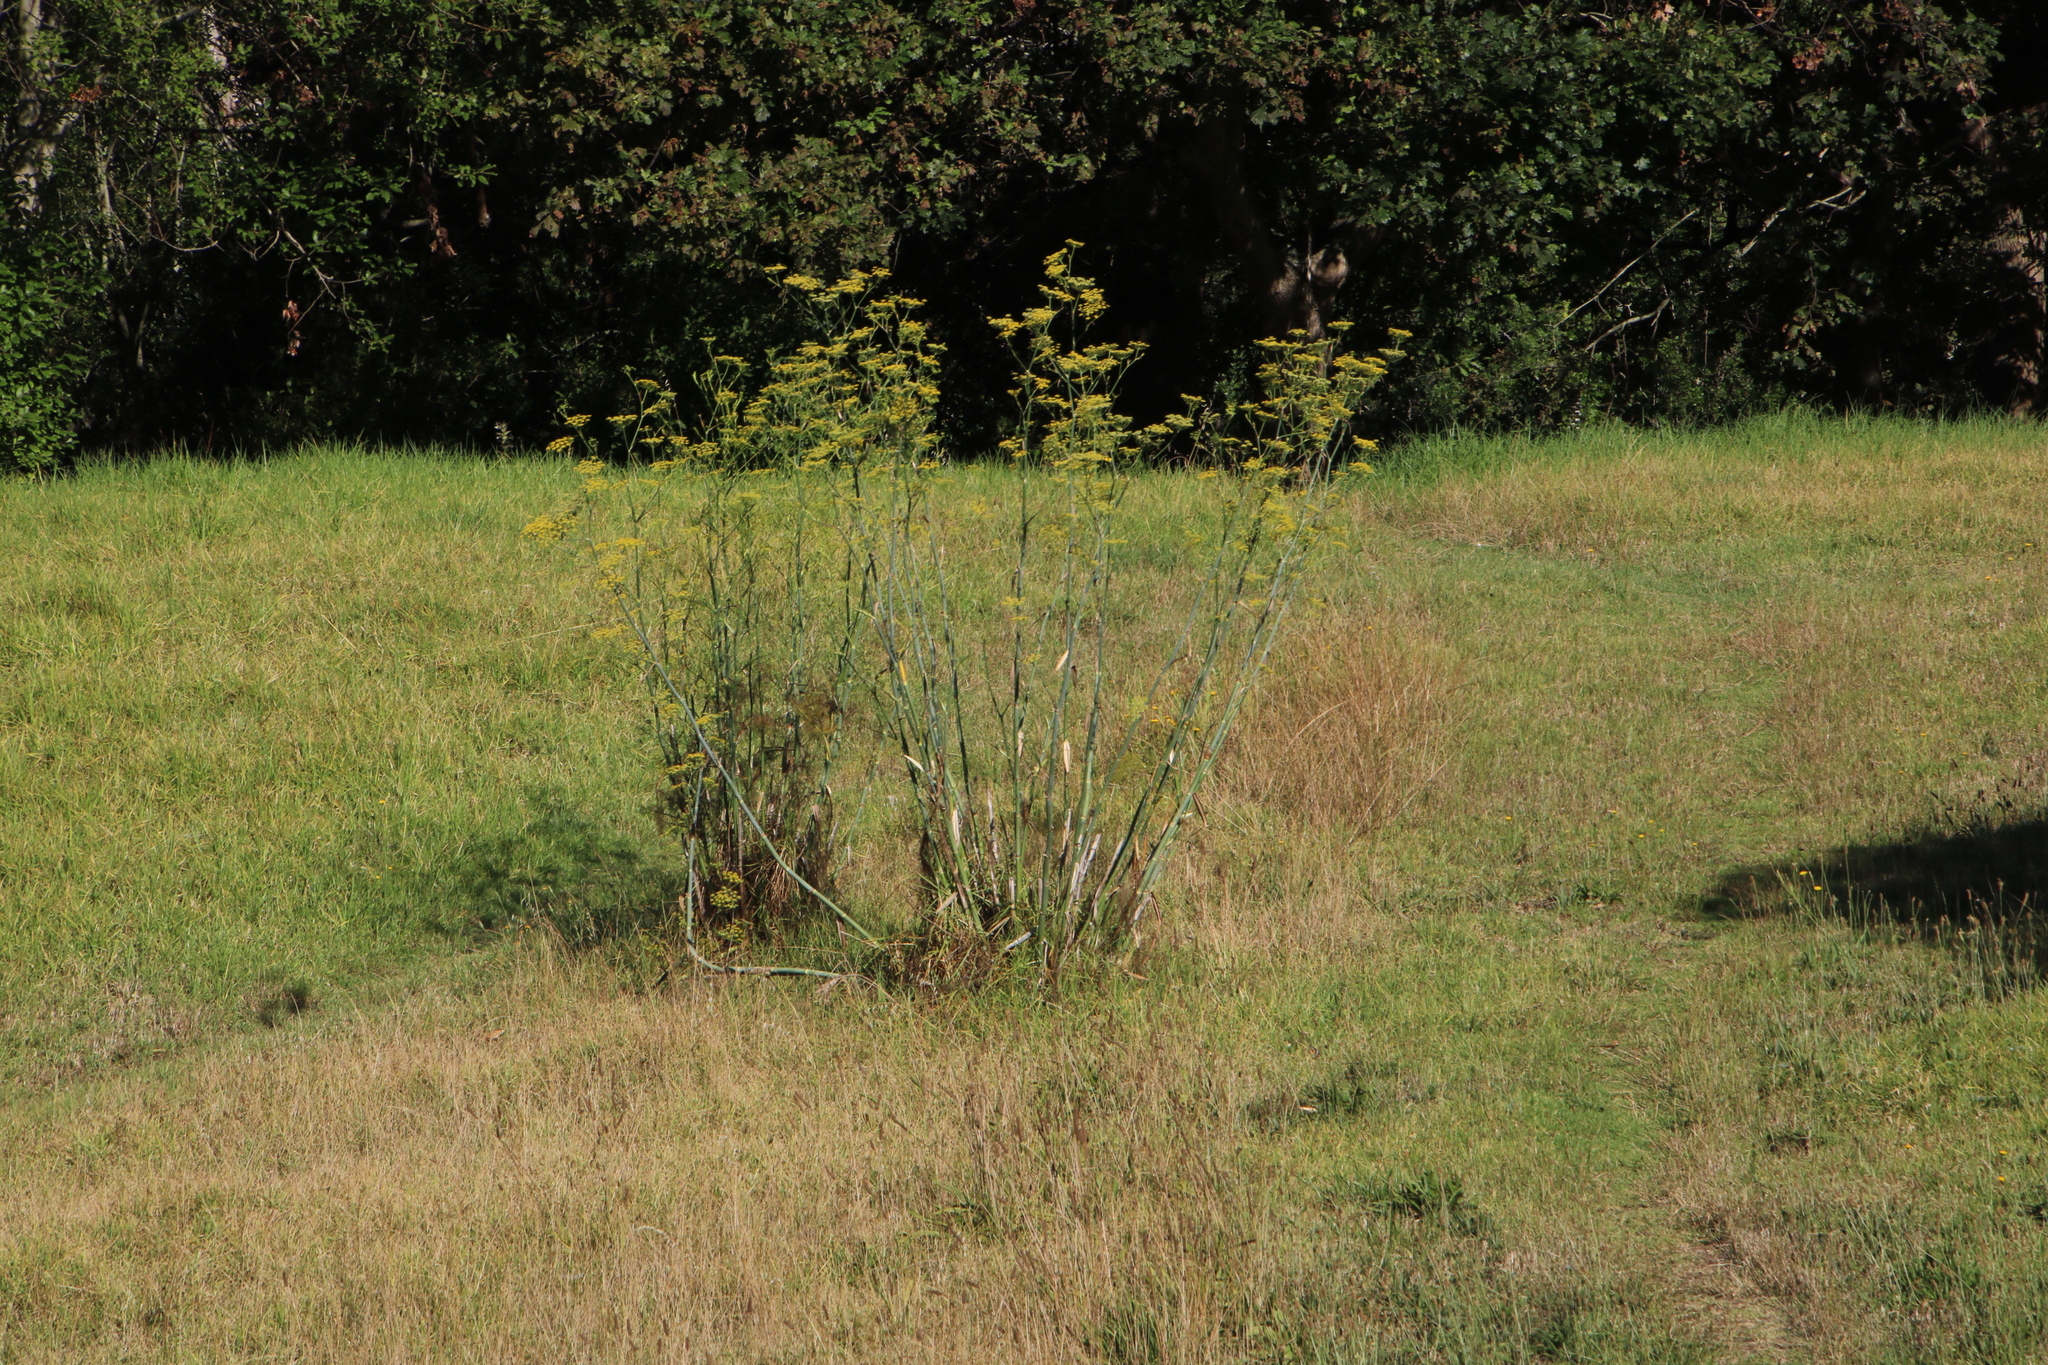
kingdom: Plantae
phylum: Tracheophyta
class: Magnoliopsida
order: Apiales
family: Apiaceae
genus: Foeniculum
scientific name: Foeniculum vulgare
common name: Fennel
